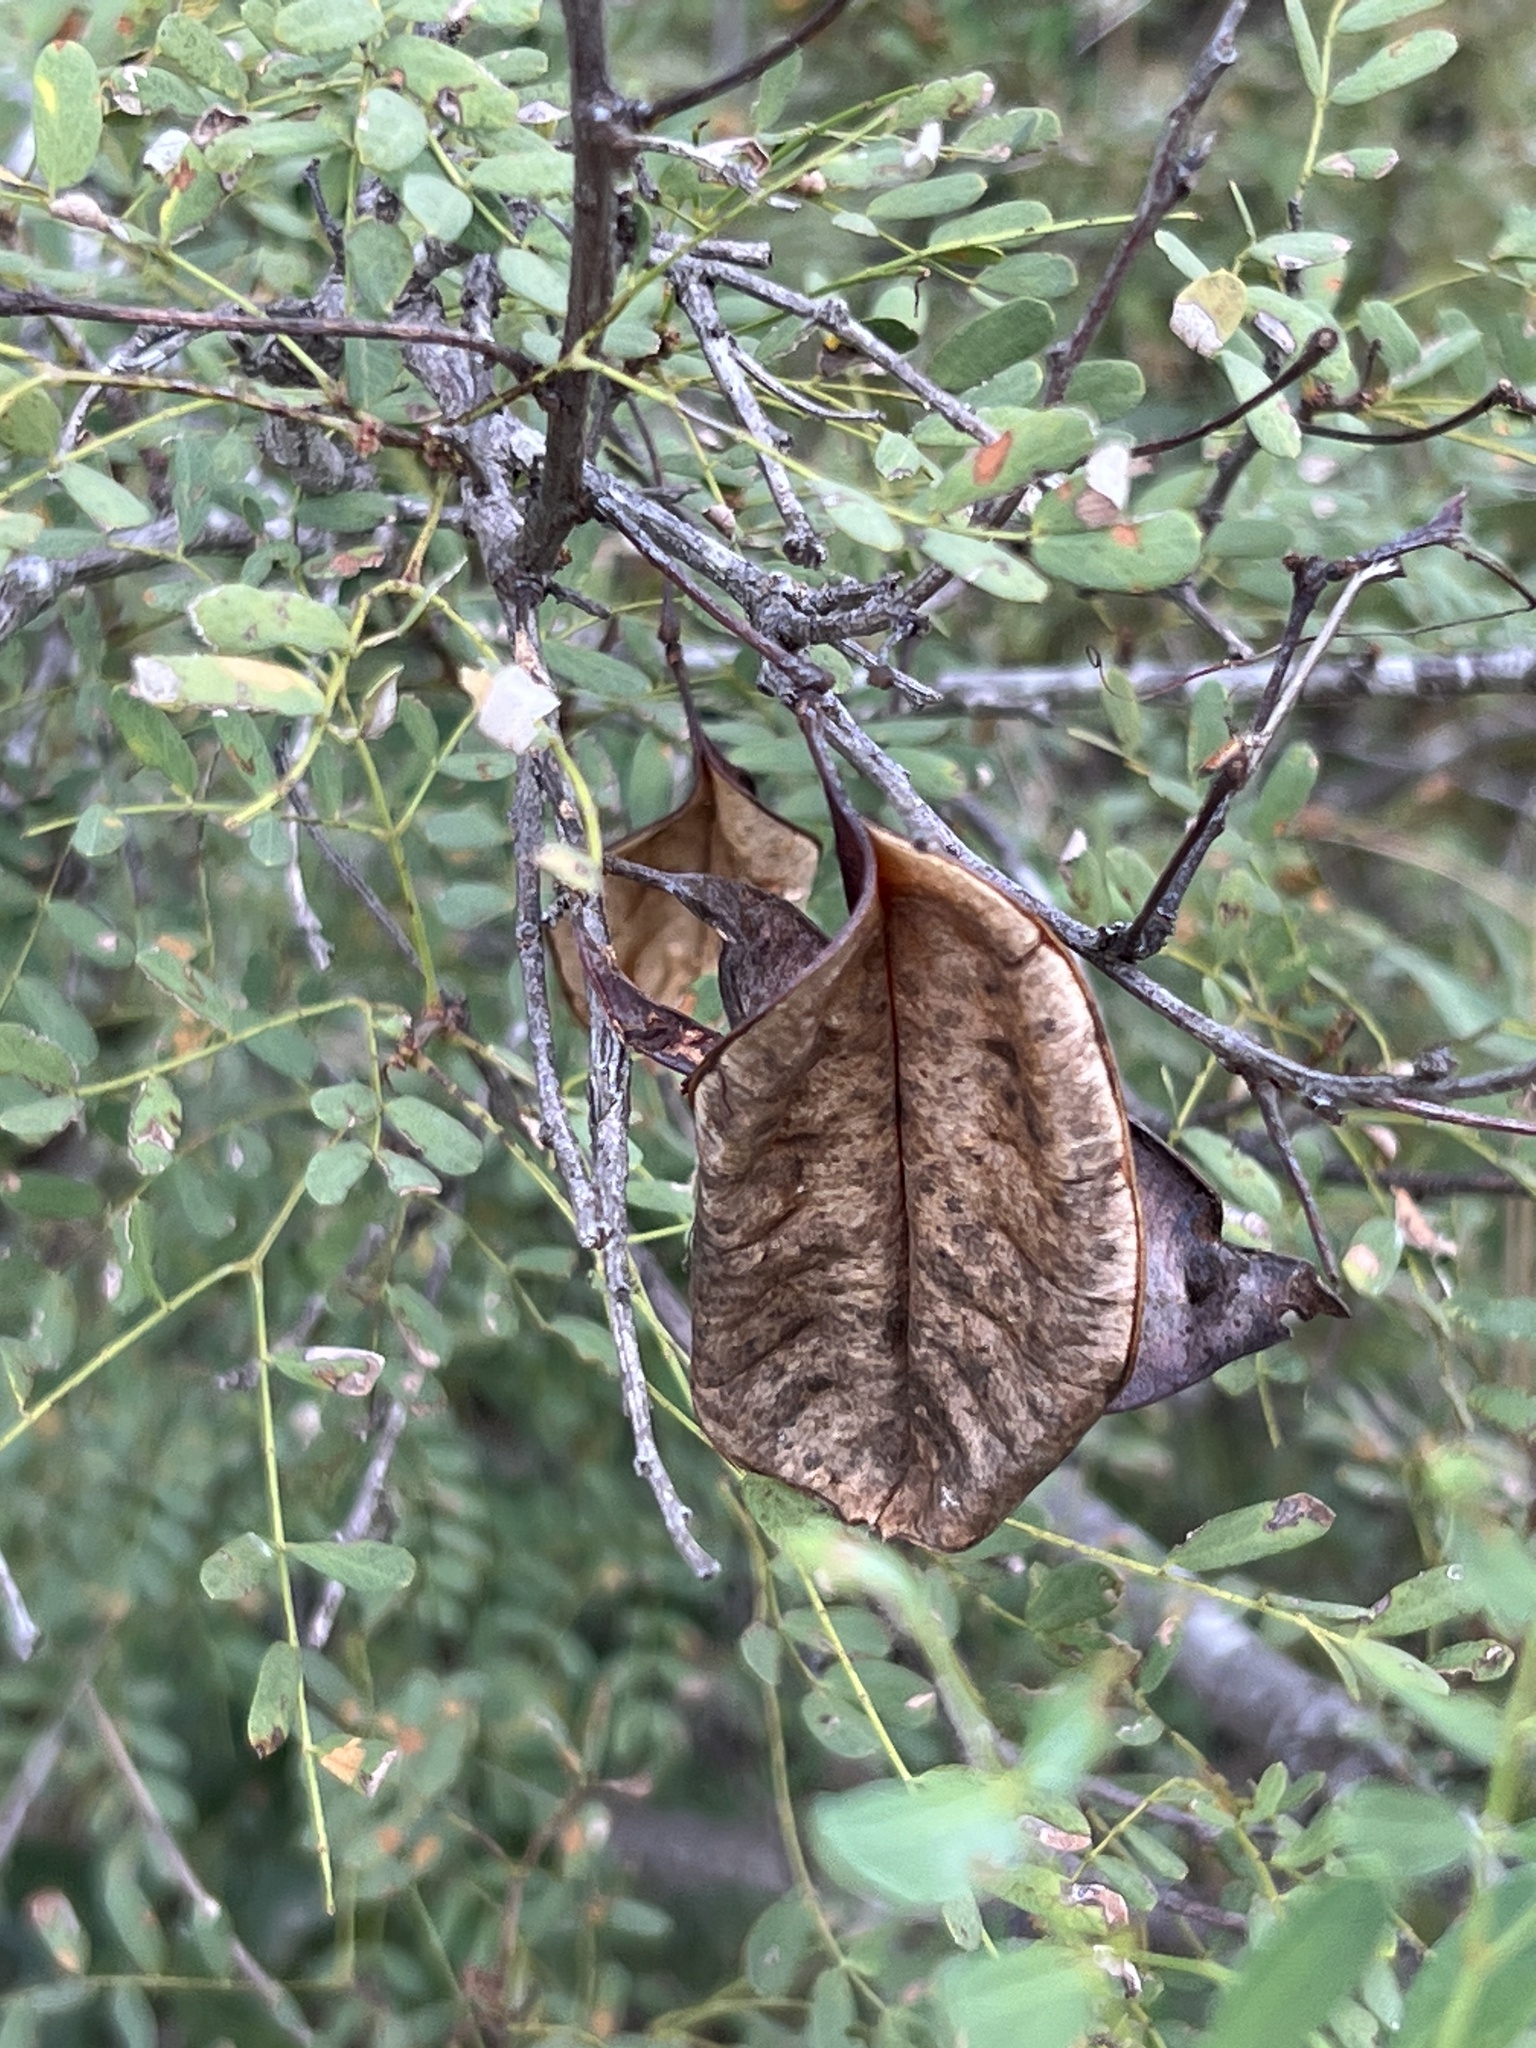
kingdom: Plantae
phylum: Tracheophyta
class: Magnoliopsida
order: Fabales
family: Fabaceae
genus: Senegalia
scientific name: Senegalia roemeriana
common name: Roemer's acacia
